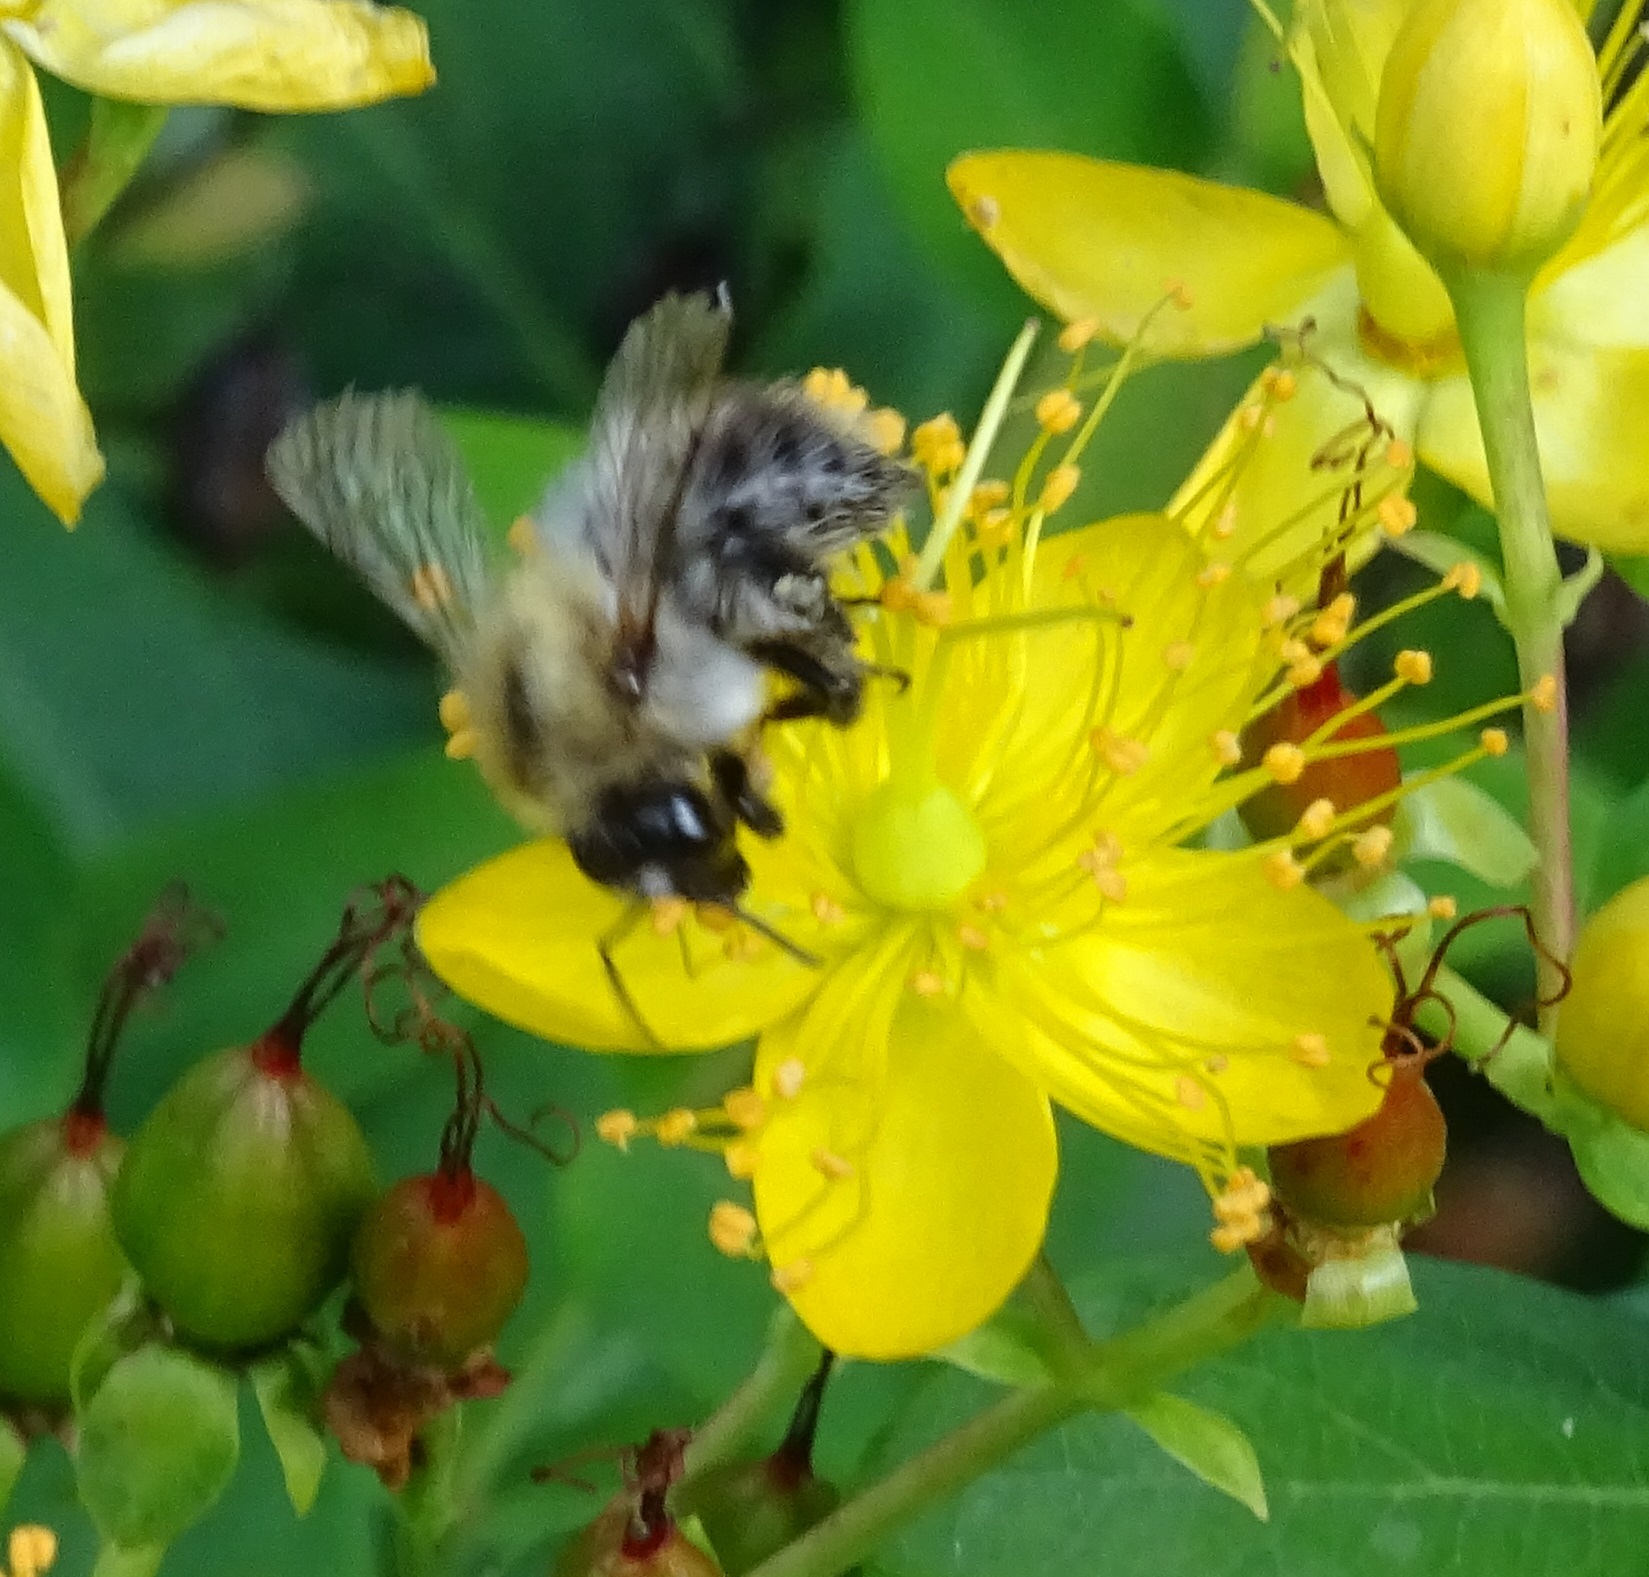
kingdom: Animalia
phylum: Arthropoda
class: Insecta
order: Hymenoptera
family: Apidae
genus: Bombus
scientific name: Bombus pascuorum
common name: Common carder bee
